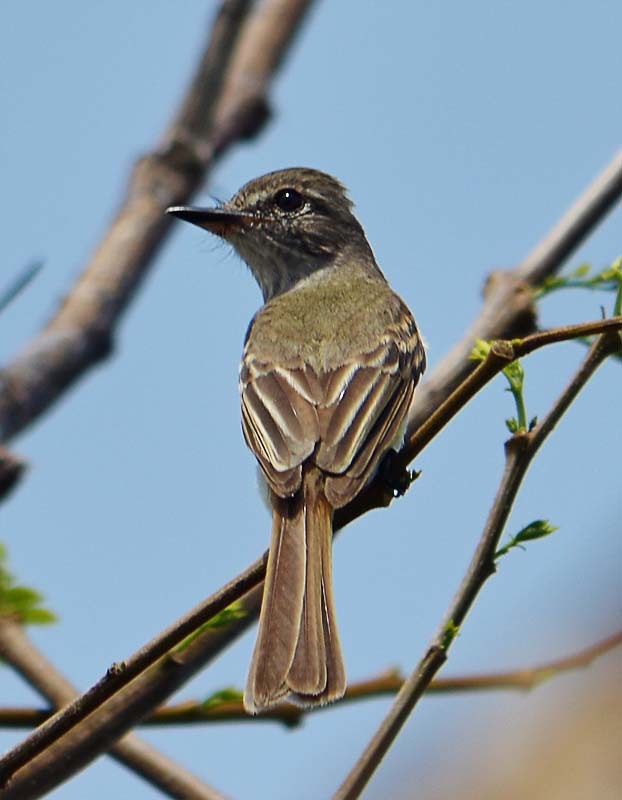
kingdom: Animalia
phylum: Chordata
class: Aves
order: Passeriformes
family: Tyrannidae
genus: Deltarhynchus
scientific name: Deltarhynchus flammulatus
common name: Flammulated flycatcher
